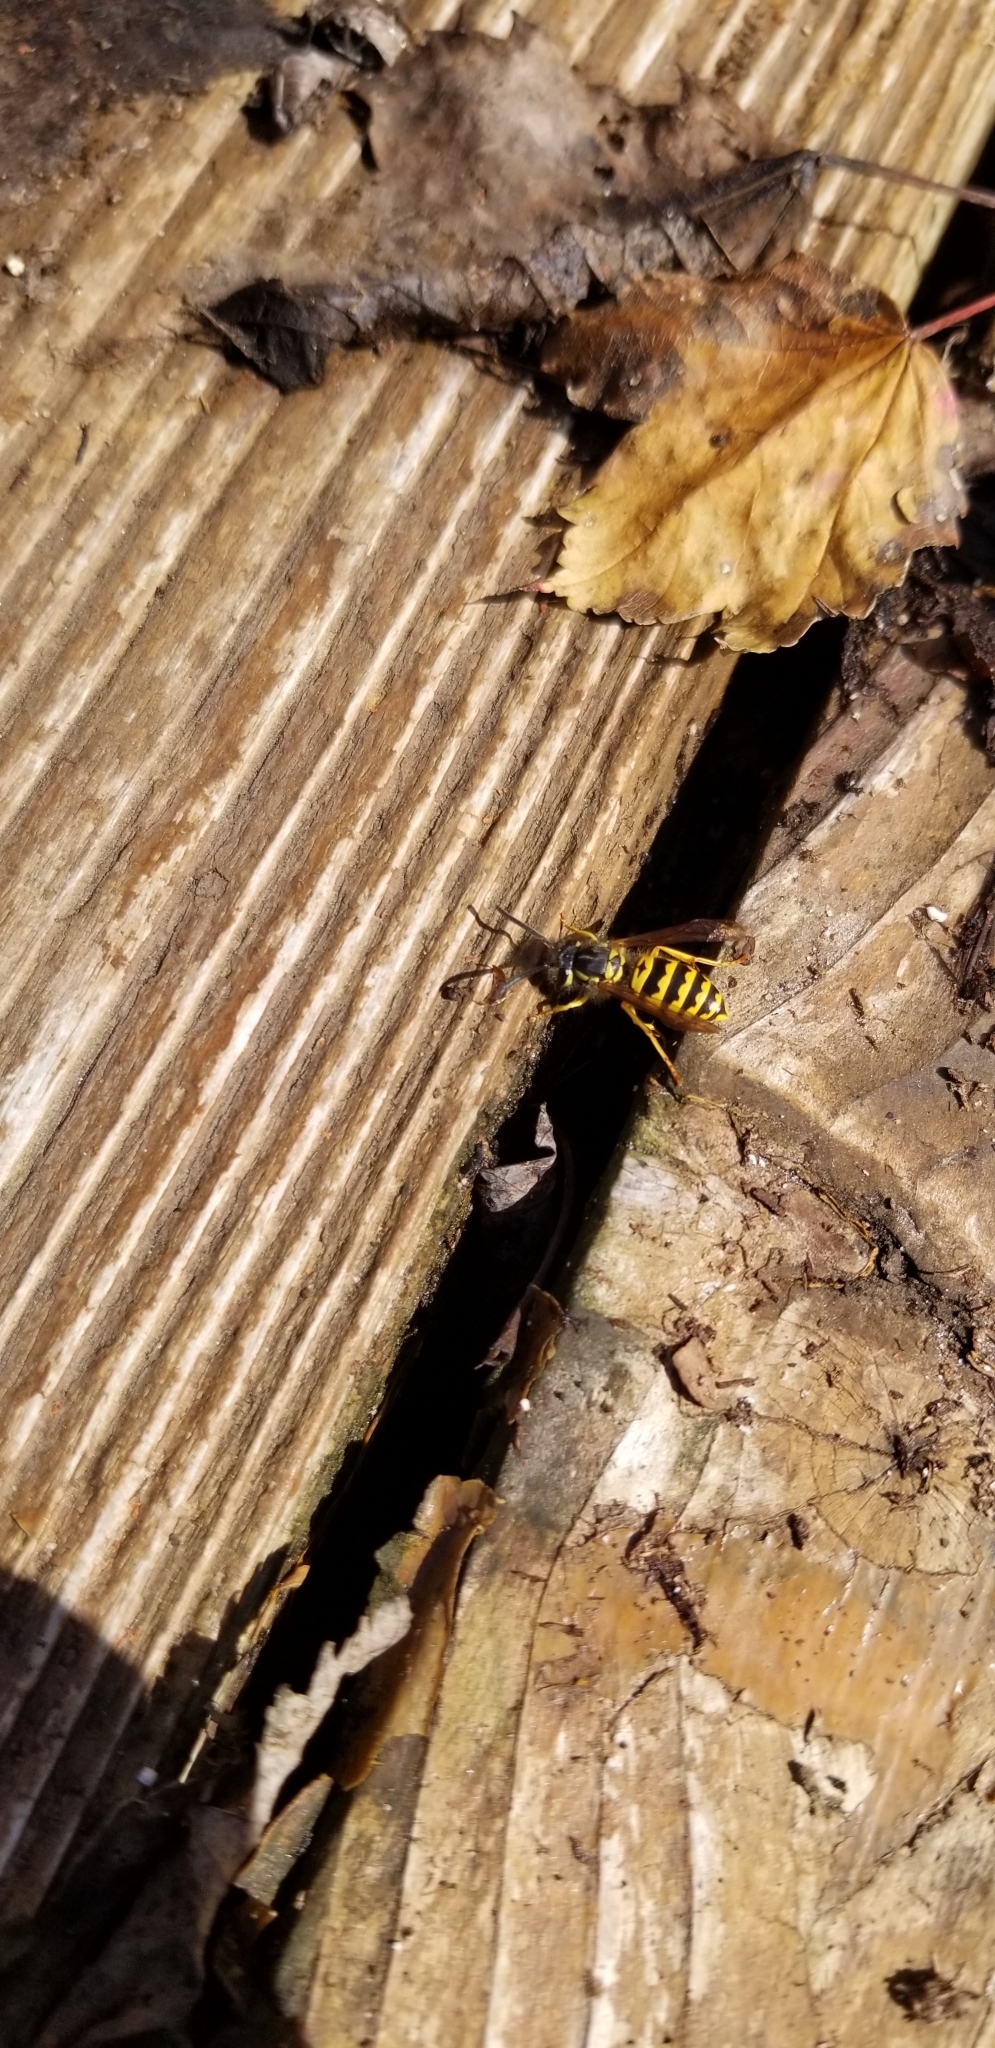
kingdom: Animalia
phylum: Arthropoda
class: Insecta
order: Hymenoptera
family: Vespidae
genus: Vespula
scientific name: Vespula maculifrons
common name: Eastern yellowjacket
